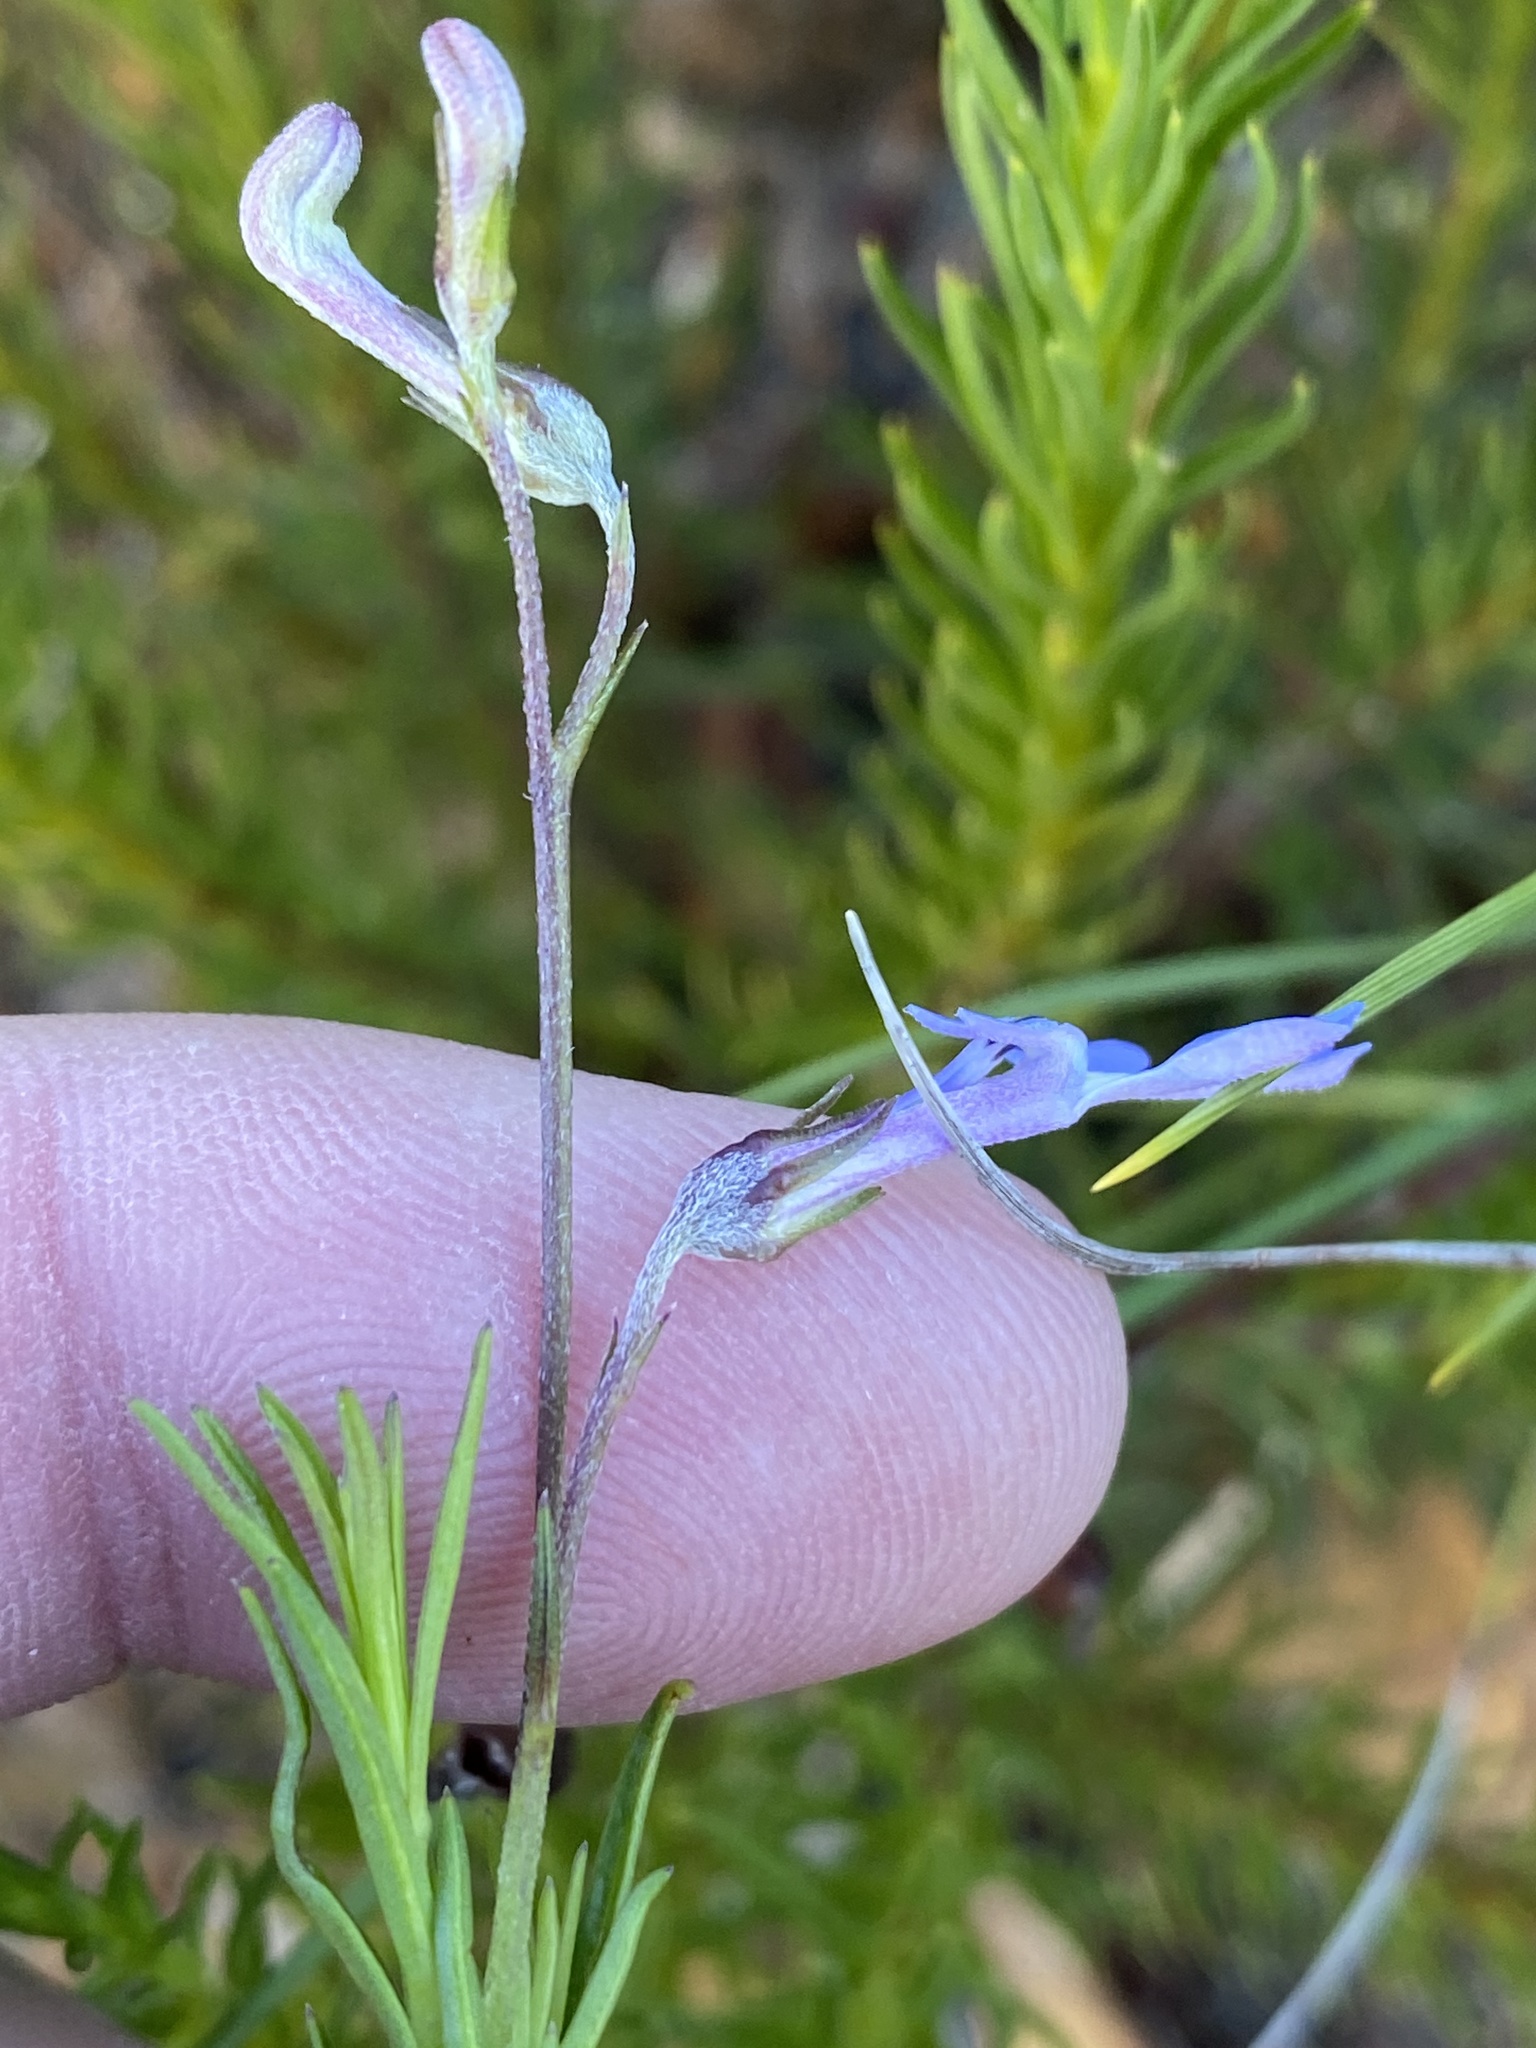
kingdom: Plantae
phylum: Tracheophyta
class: Magnoliopsida
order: Asterales
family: Campanulaceae
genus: Lobelia
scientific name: Lobelia pinifolia
